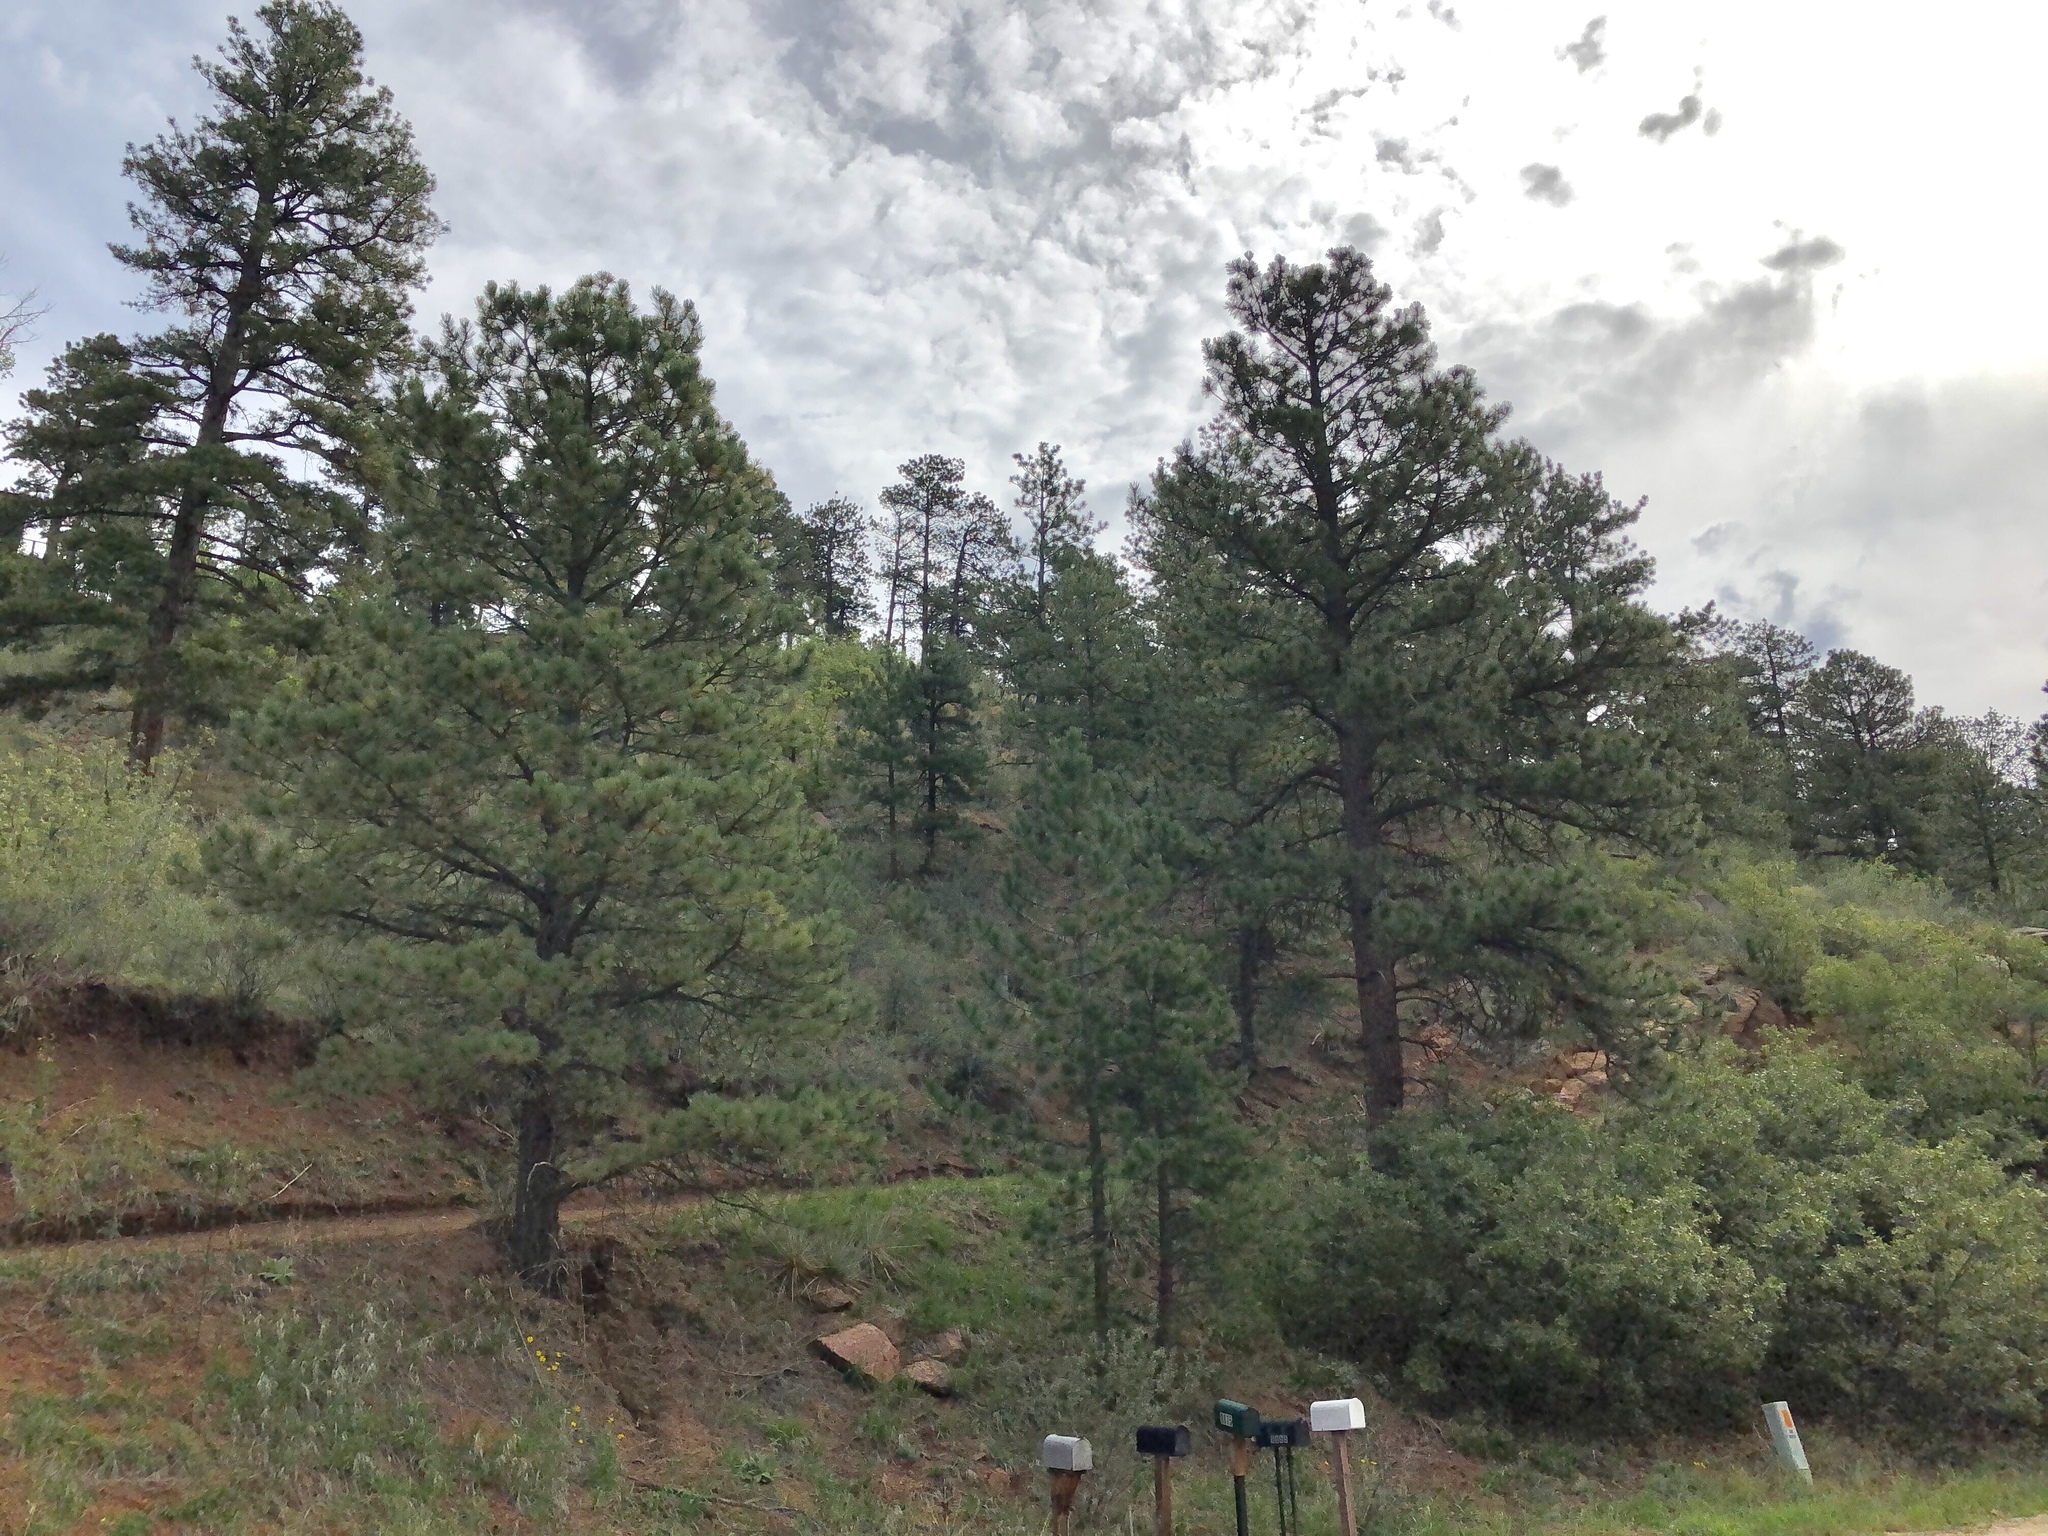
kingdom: Plantae
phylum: Tracheophyta
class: Pinopsida
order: Pinales
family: Pinaceae
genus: Pinus
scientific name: Pinus ponderosa
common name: Western yellow-pine
